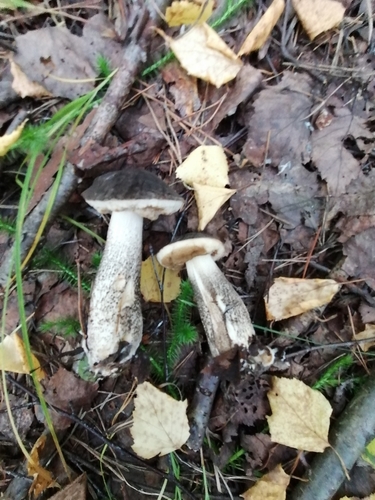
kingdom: Fungi
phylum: Basidiomycota
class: Agaricomycetes
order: Boletales
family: Boletaceae
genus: Leccinum
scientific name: Leccinum scabrum
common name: Blushing bolete
